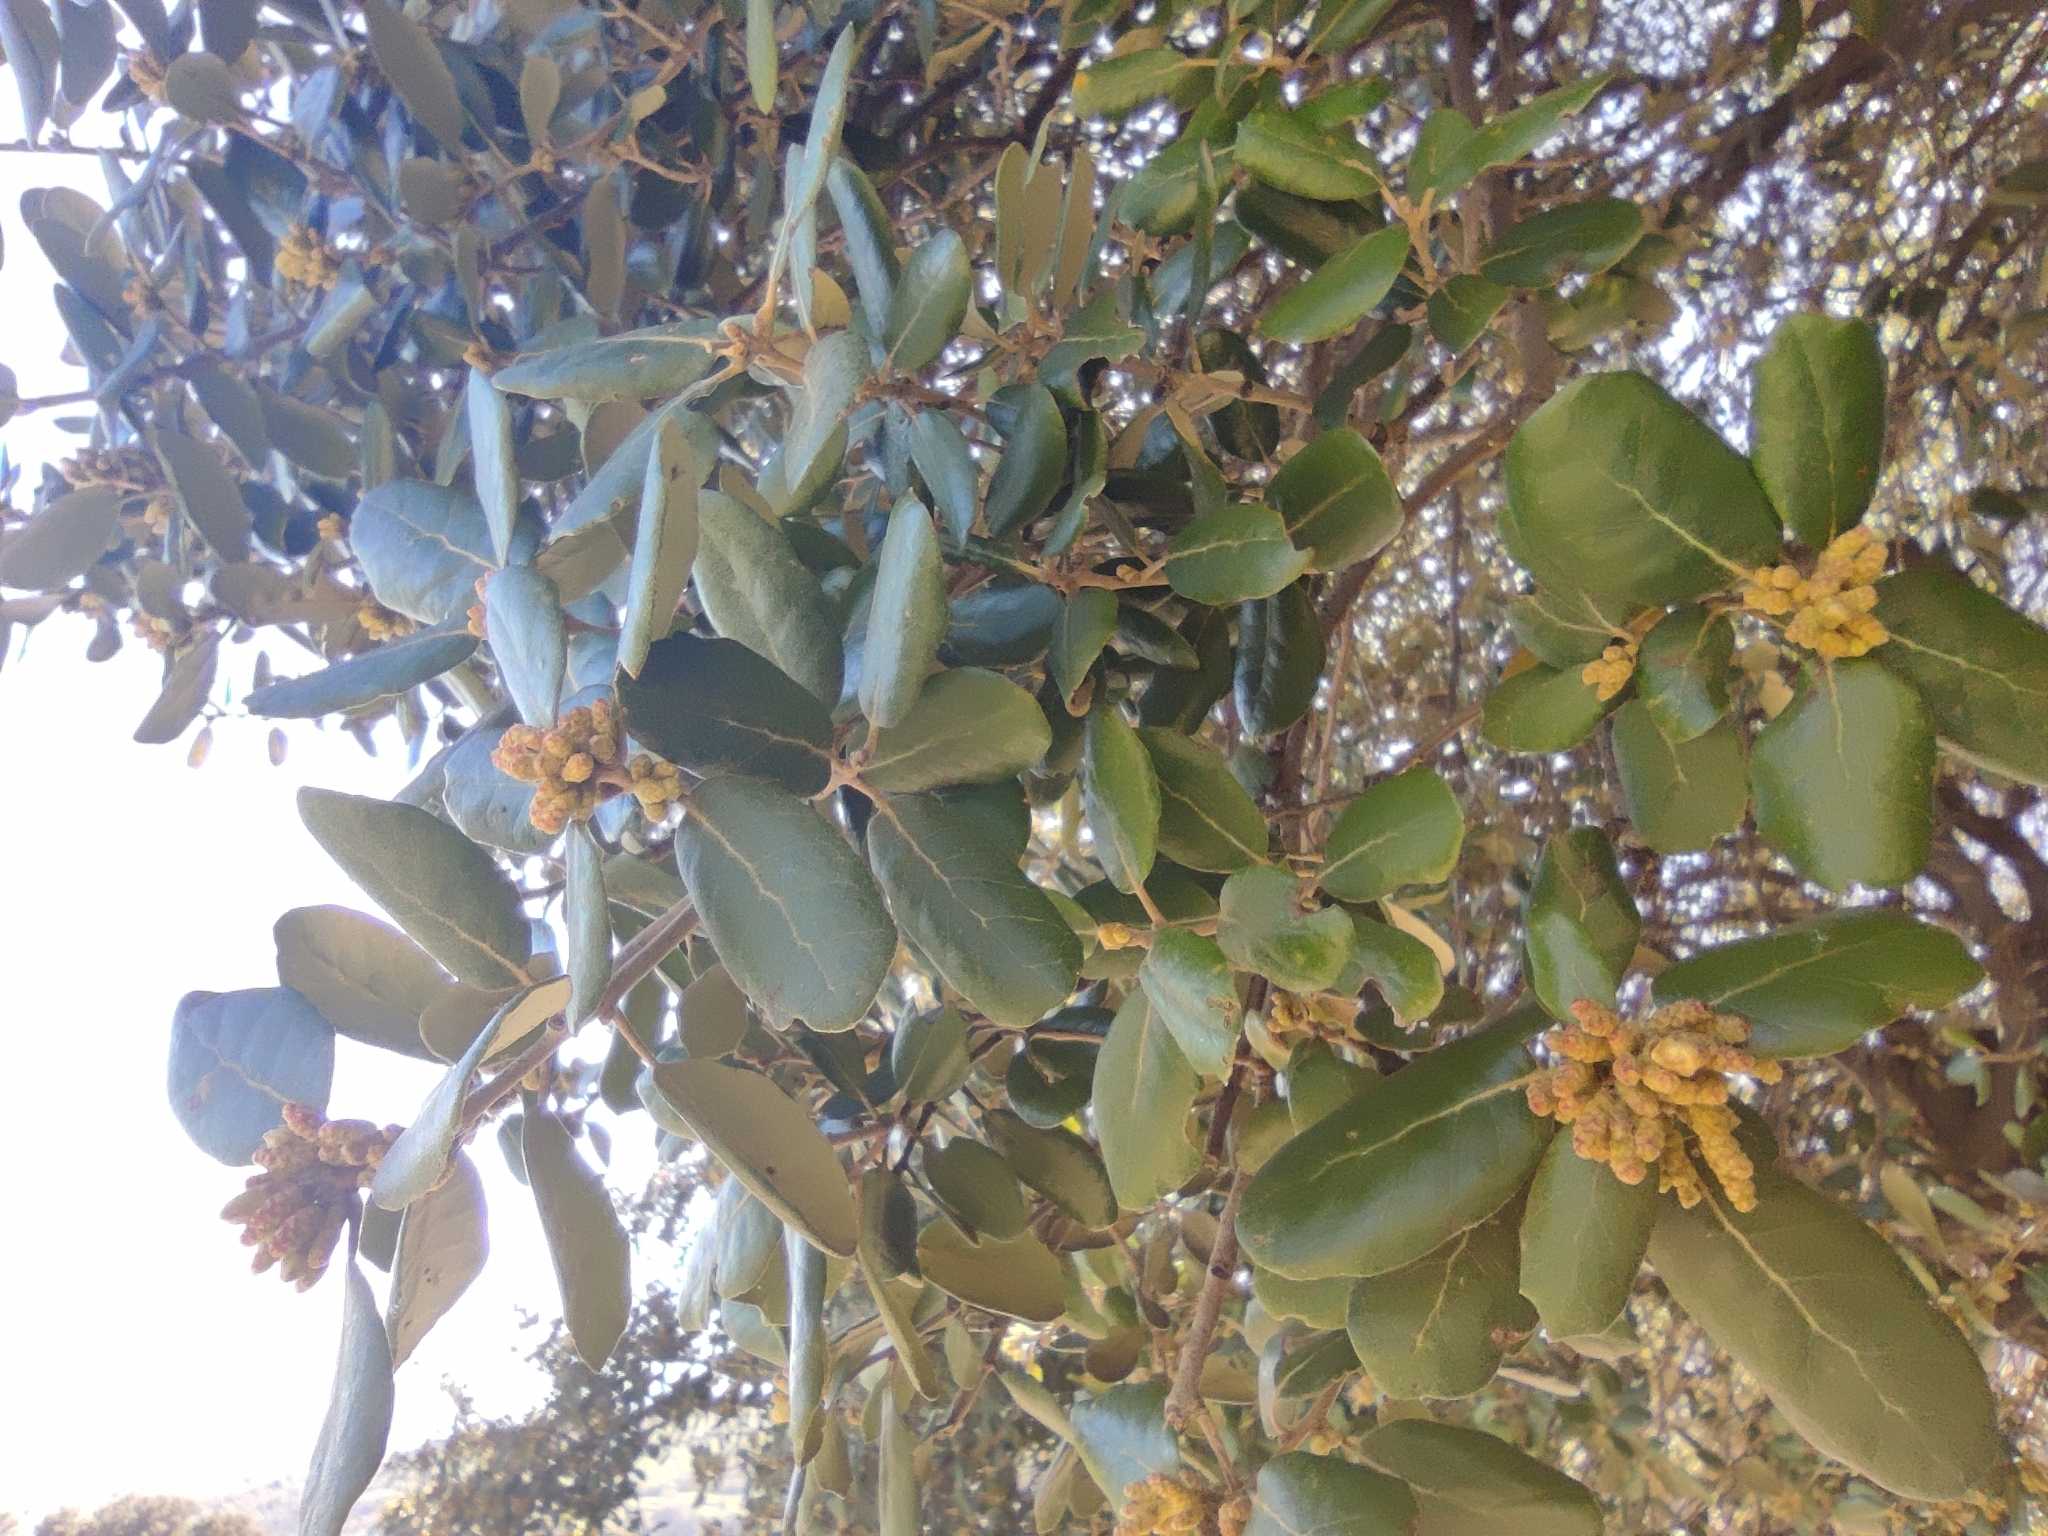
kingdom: Plantae
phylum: Tracheophyta
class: Magnoliopsida
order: Fagales
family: Fagaceae
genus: Quercus
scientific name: Quercus rotundifolia
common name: Holm oak
